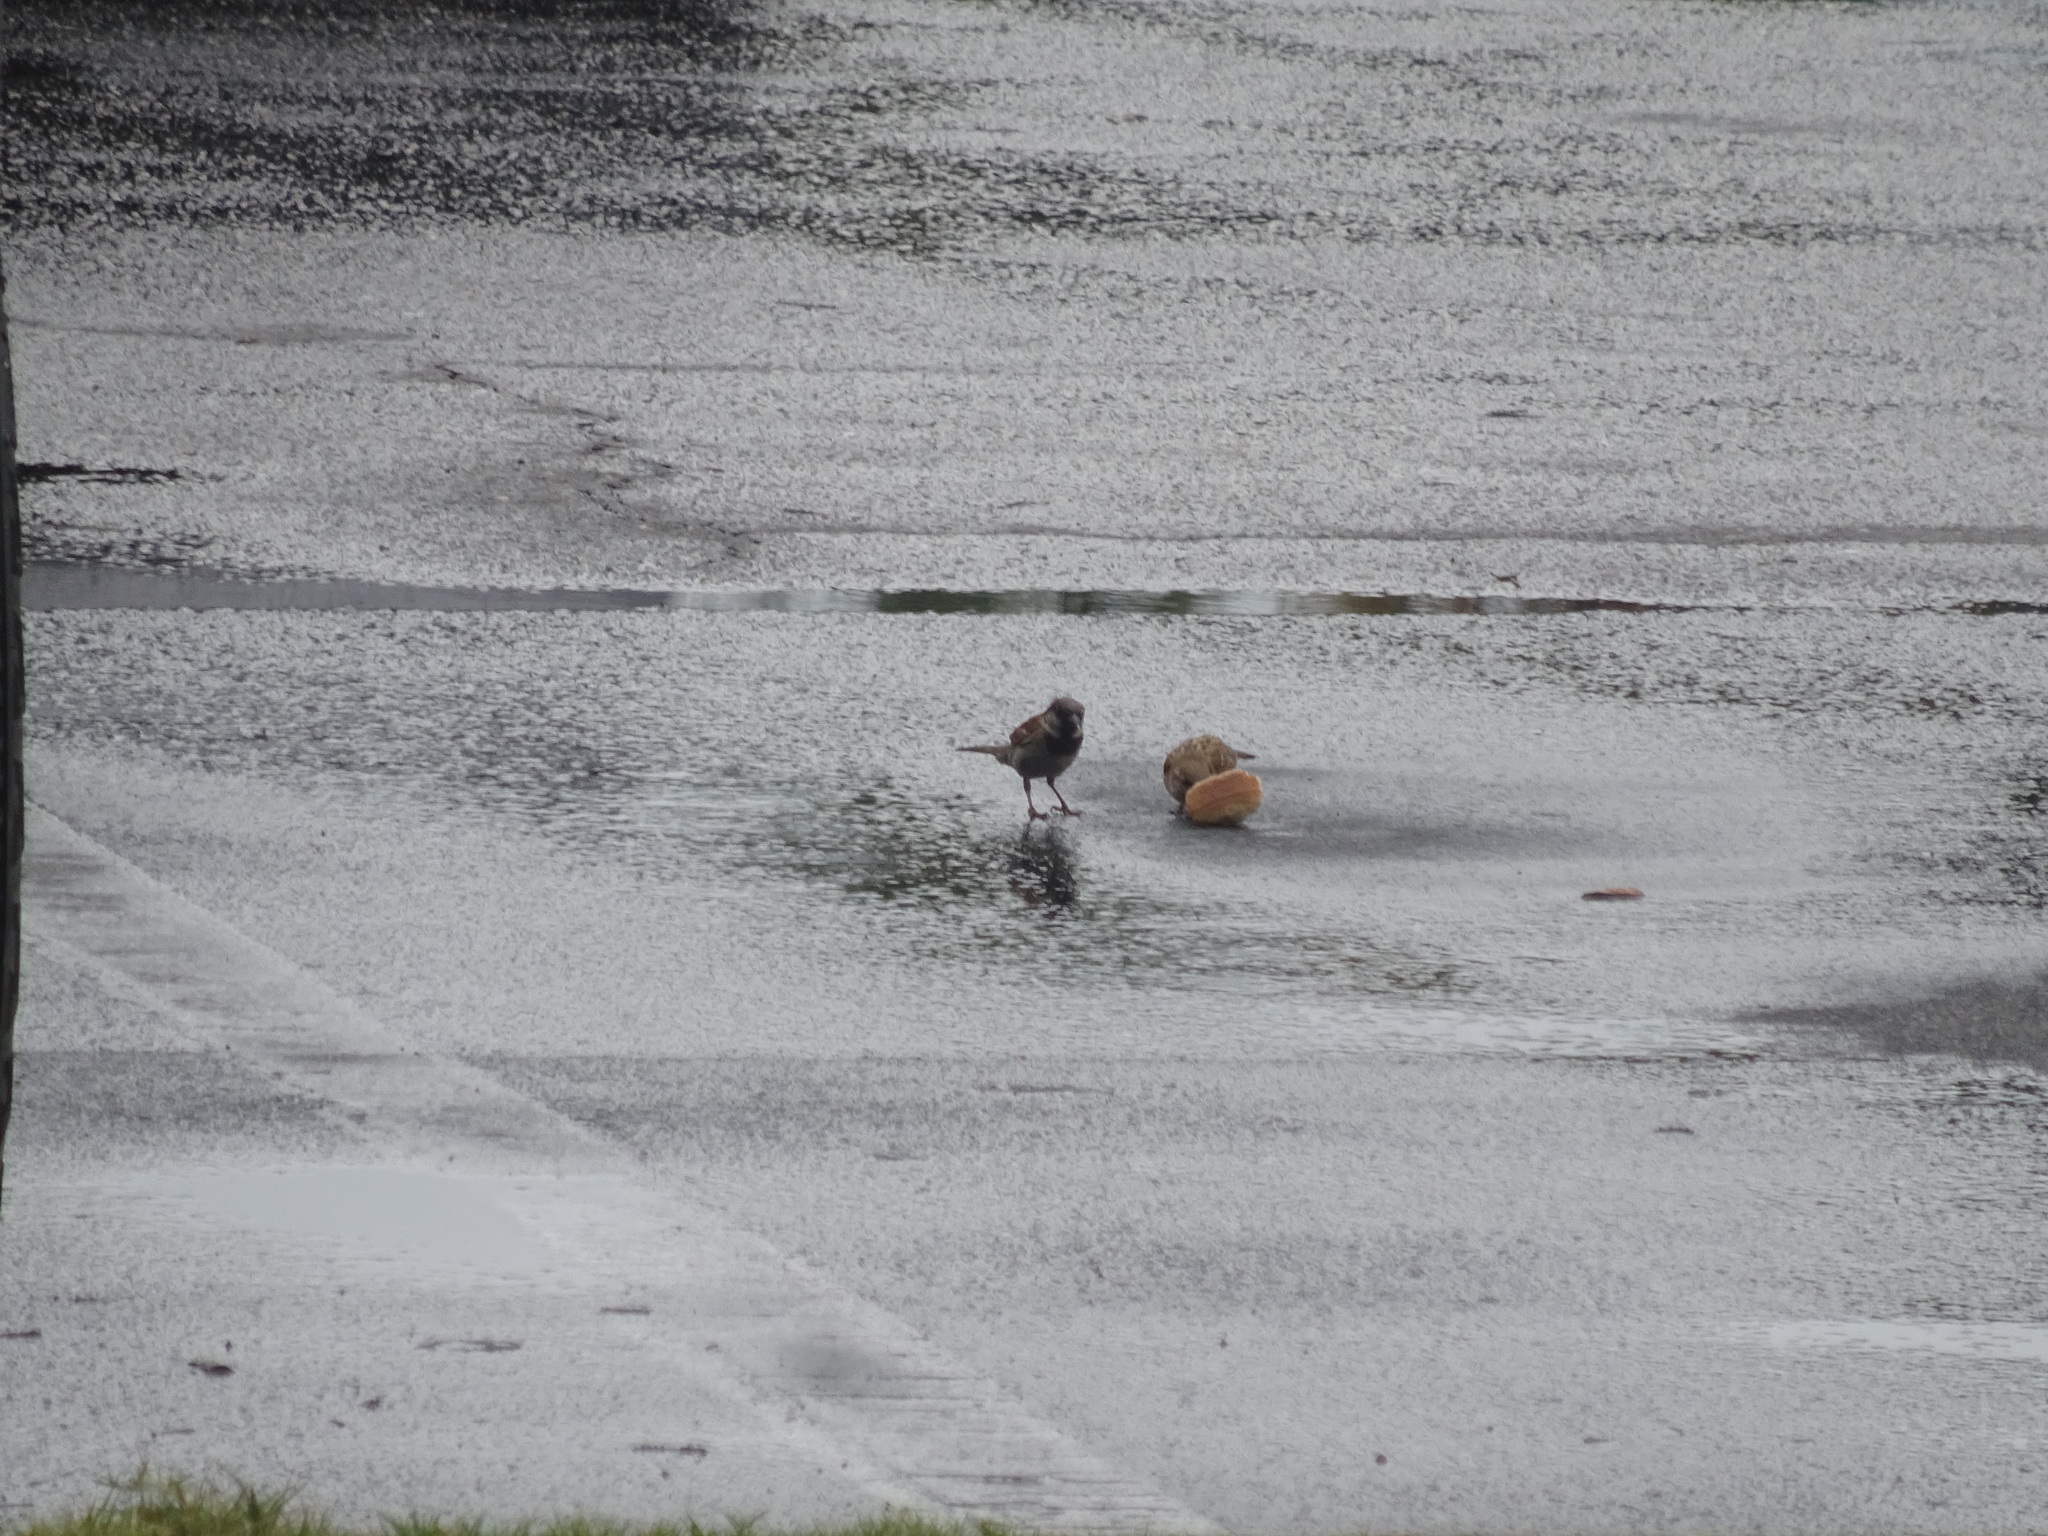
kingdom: Animalia
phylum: Chordata
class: Aves
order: Passeriformes
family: Passeridae
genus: Passer
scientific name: Passer domesticus
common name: House sparrow
